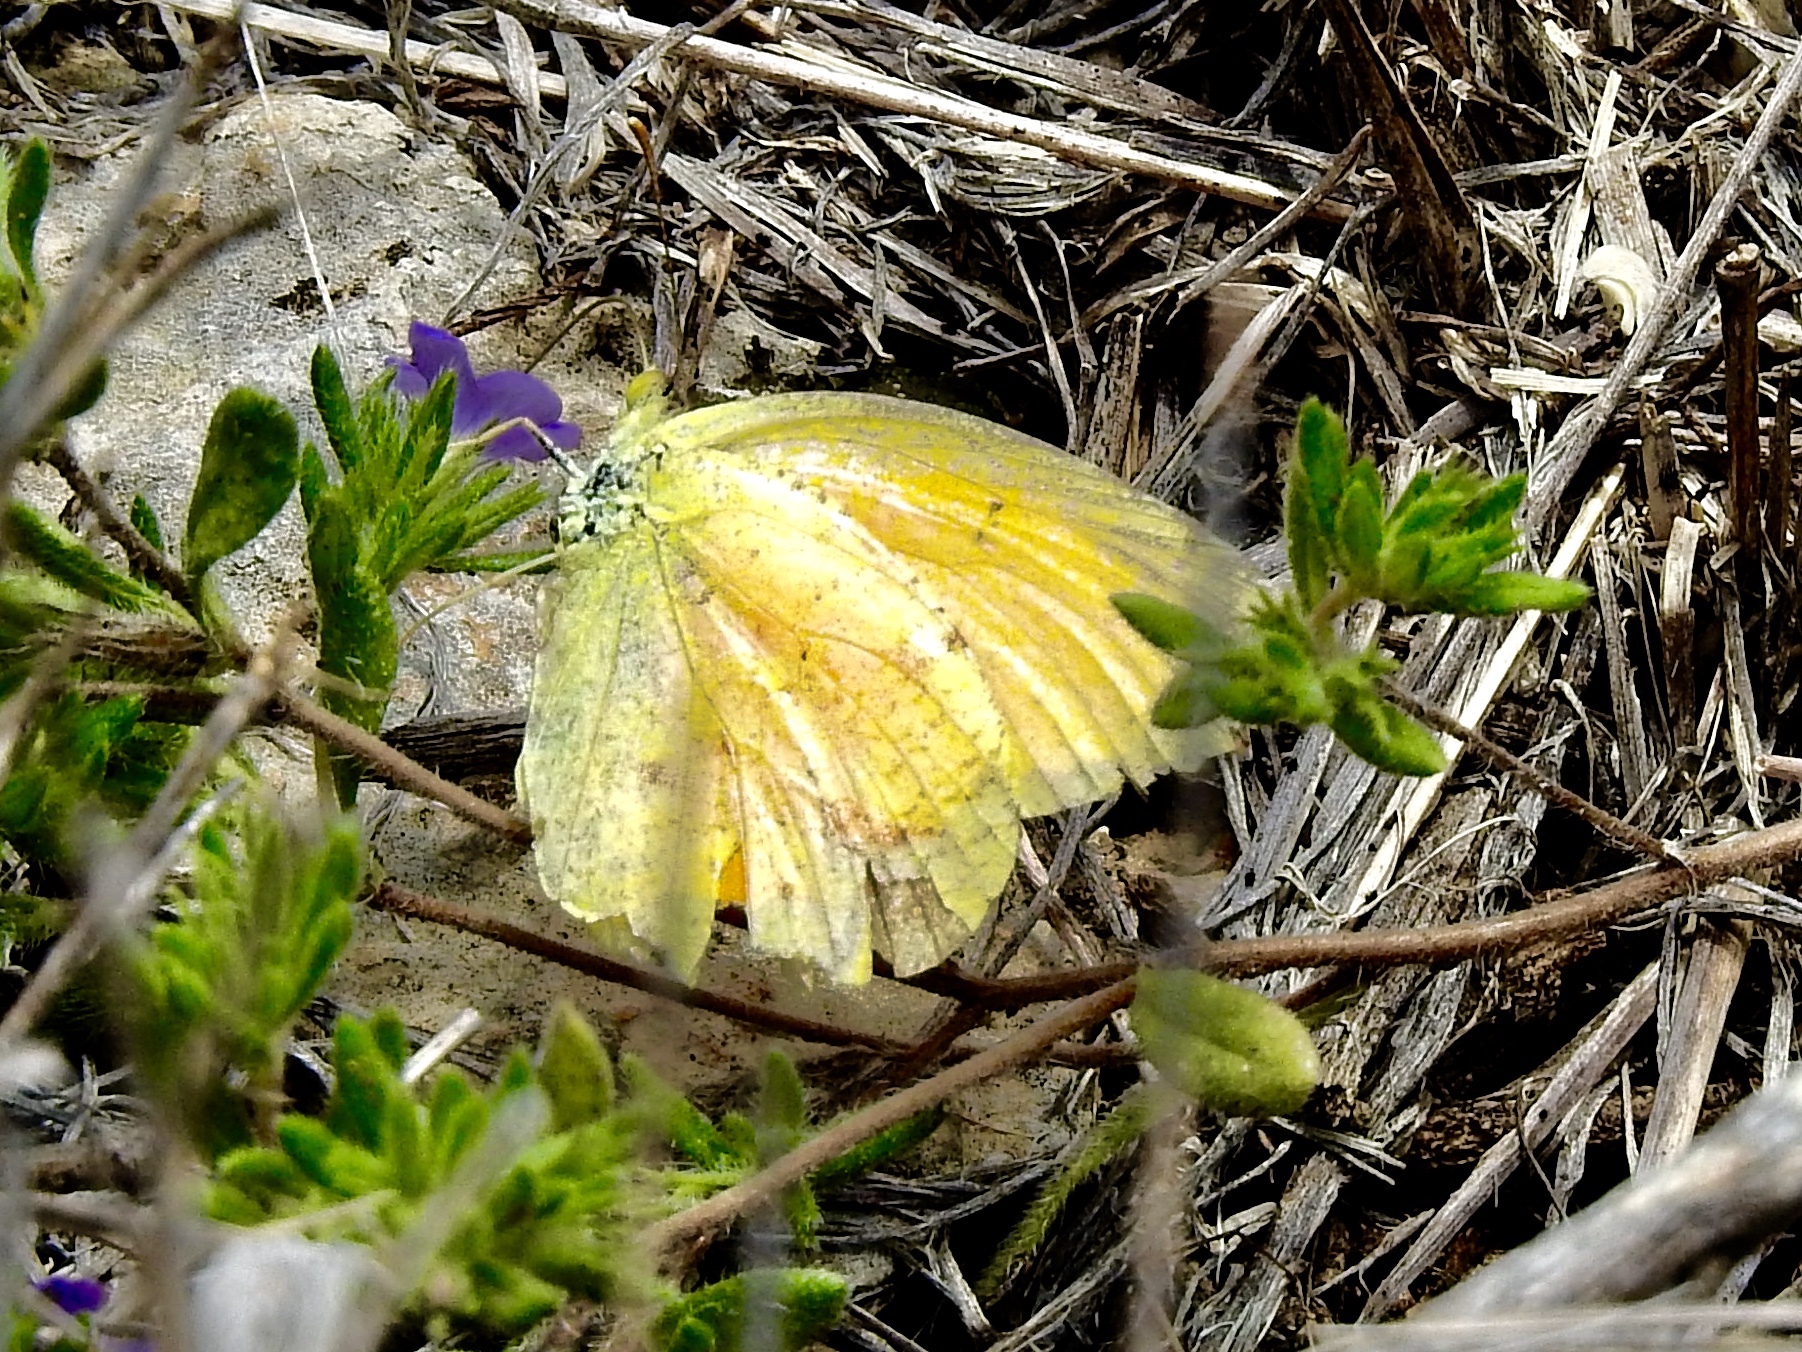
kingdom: Animalia
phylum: Arthropoda
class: Insecta
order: Lepidoptera
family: Pieridae
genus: Abaeis
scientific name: Abaeis nicippe
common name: Sleepy orange
